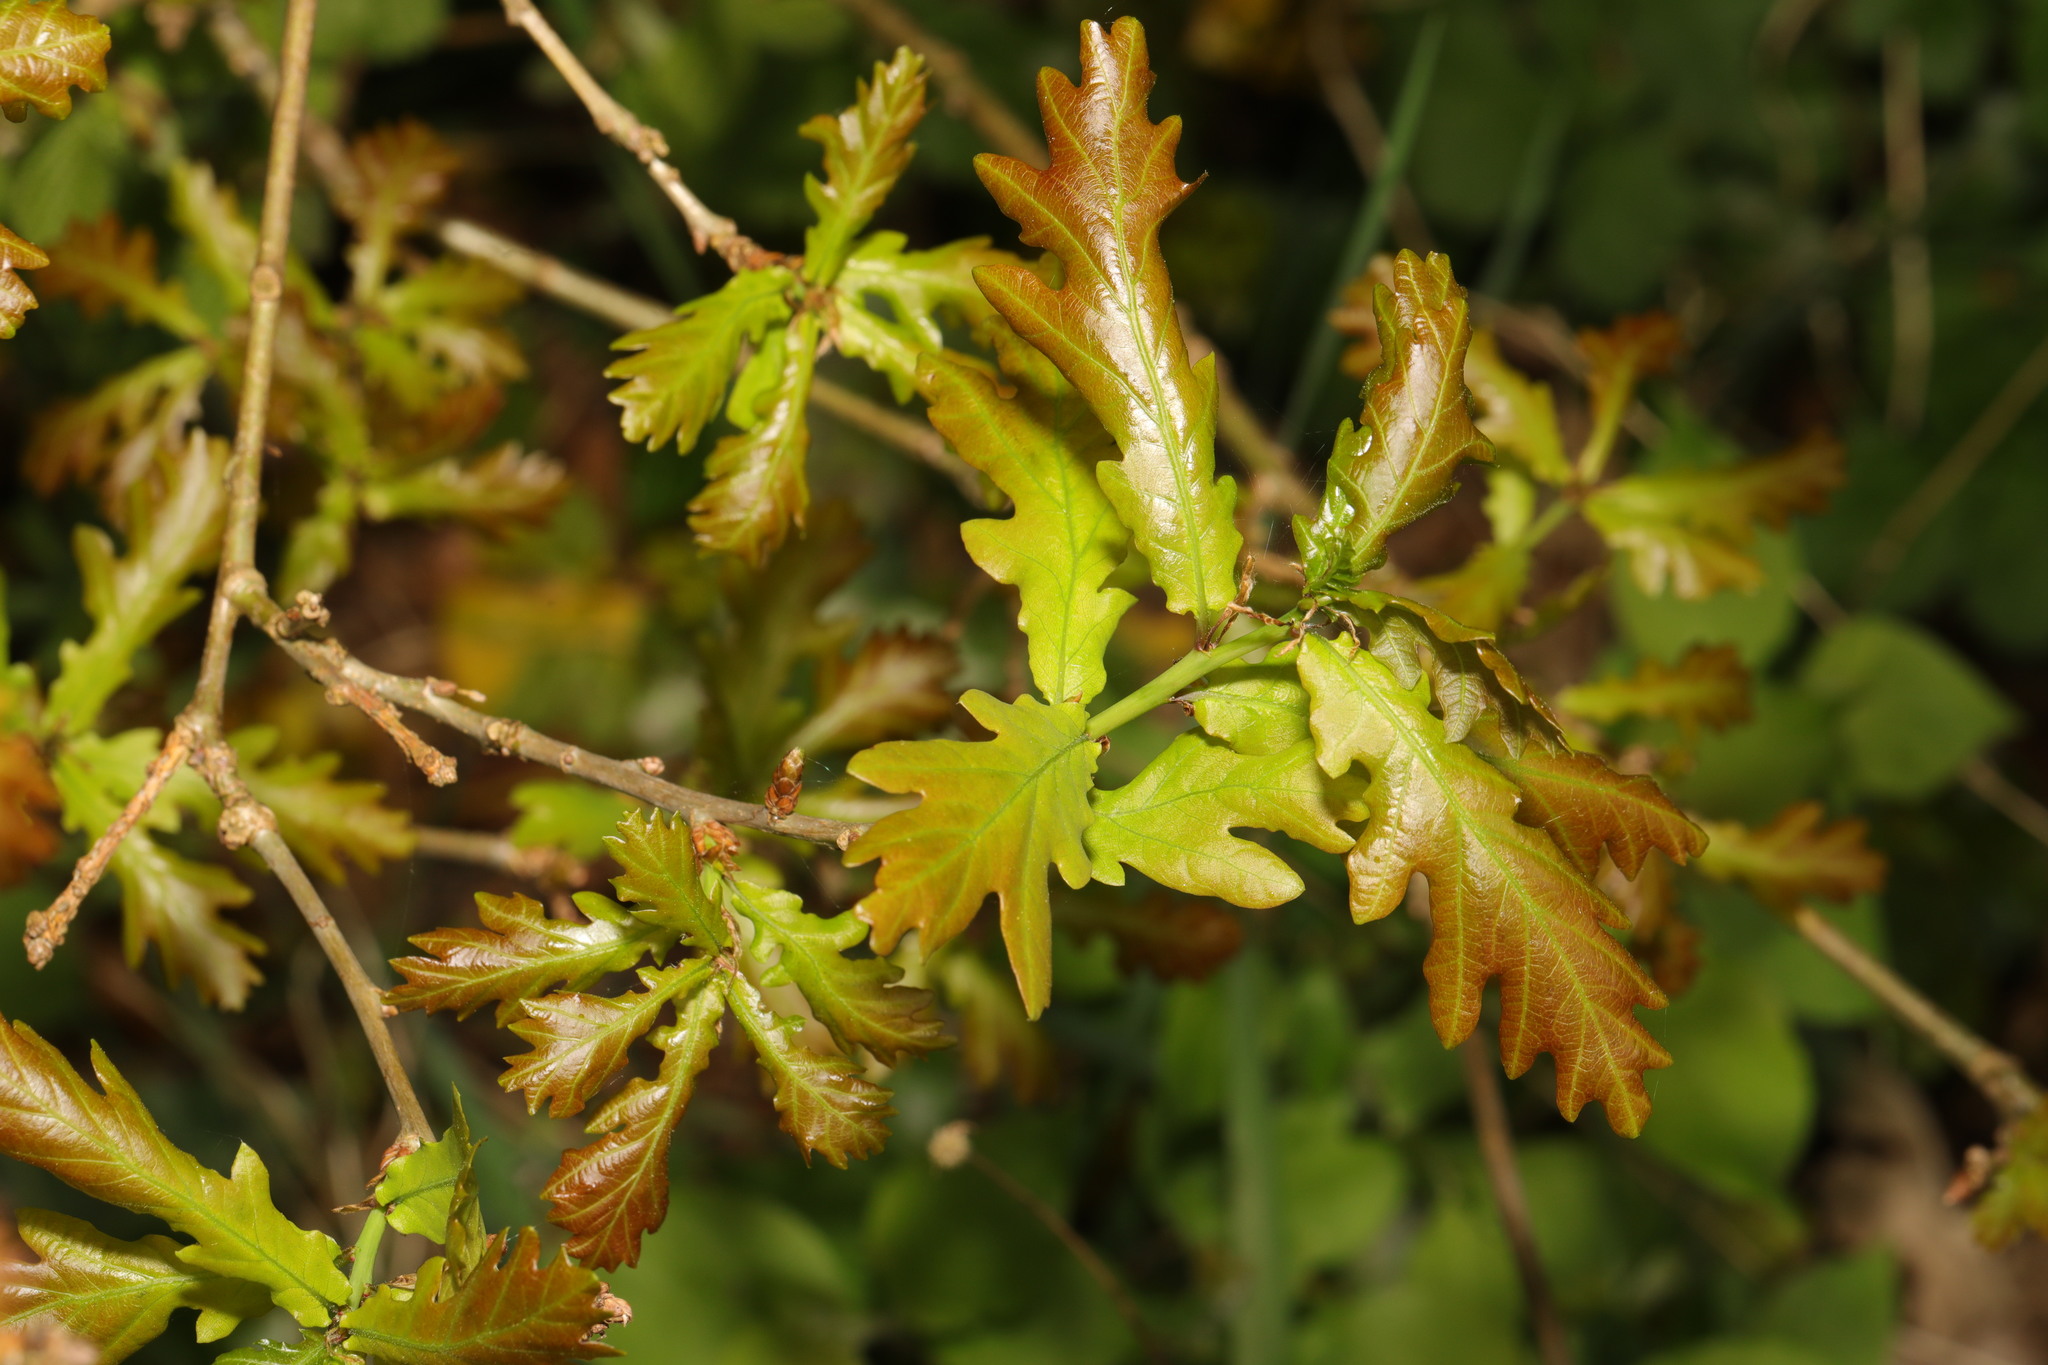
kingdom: Plantae
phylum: Tracheophyta
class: Magnoliopsida
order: Fagales
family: Fagaceae
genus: Quercus
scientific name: Quercus cerris
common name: Turkey oak
